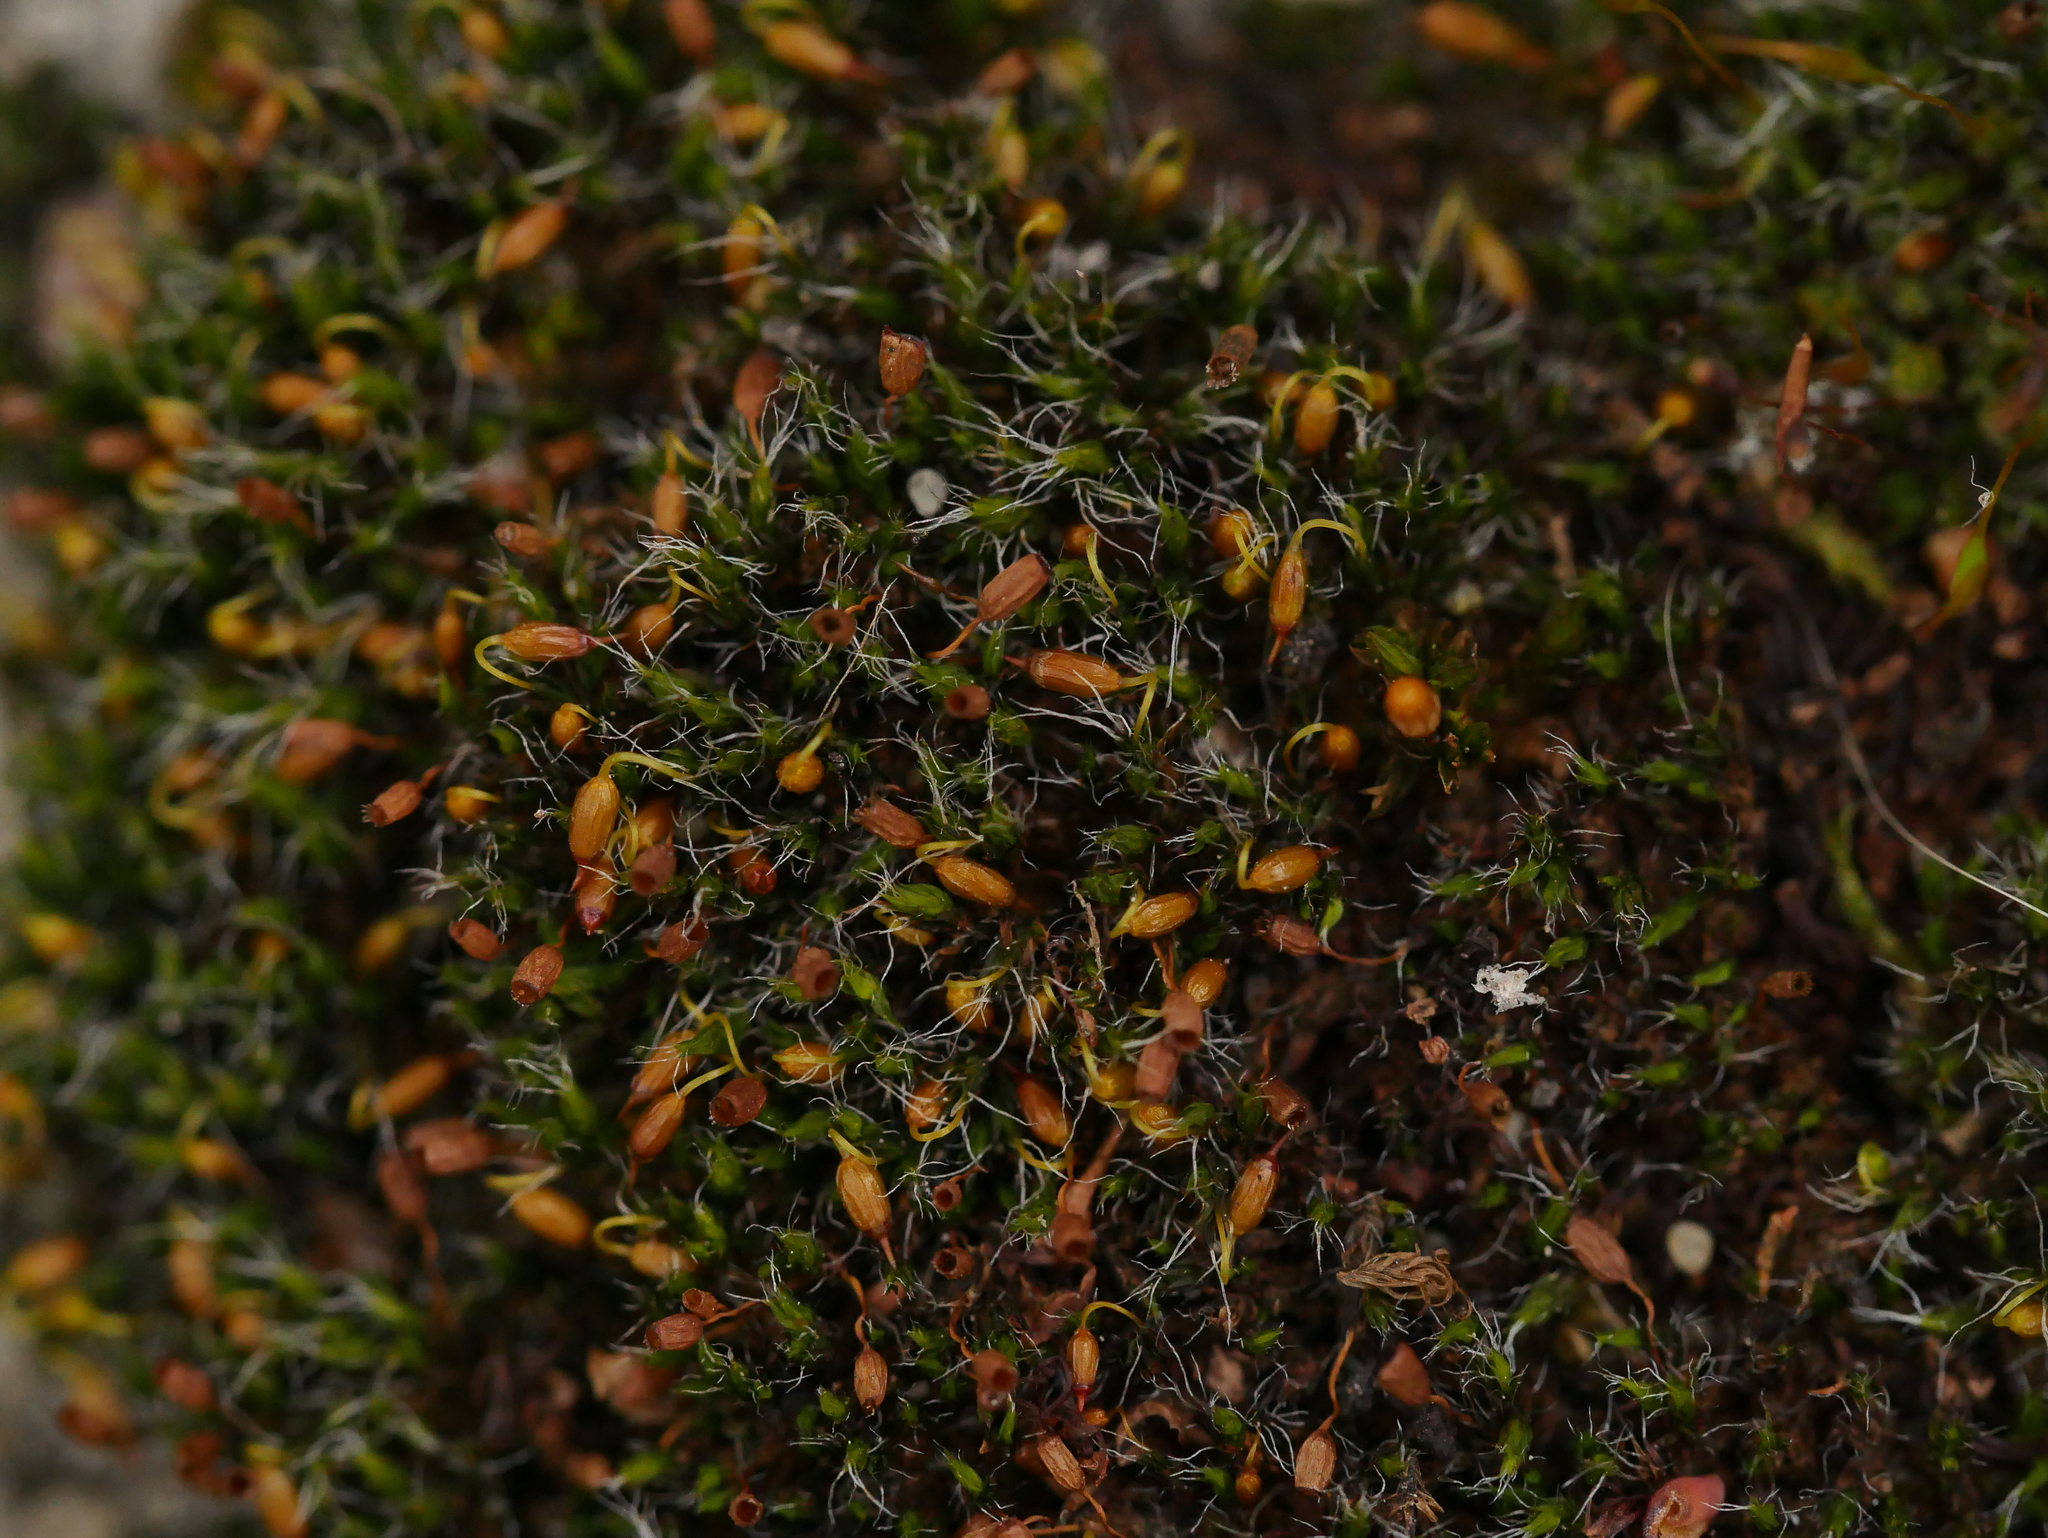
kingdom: Plantae
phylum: Bryophyta
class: Bryopsida
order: Grimmiales
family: Grimmiaceae
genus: Grimmia
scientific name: Grimmia pulvinata
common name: Grey-cushioned grimmia
